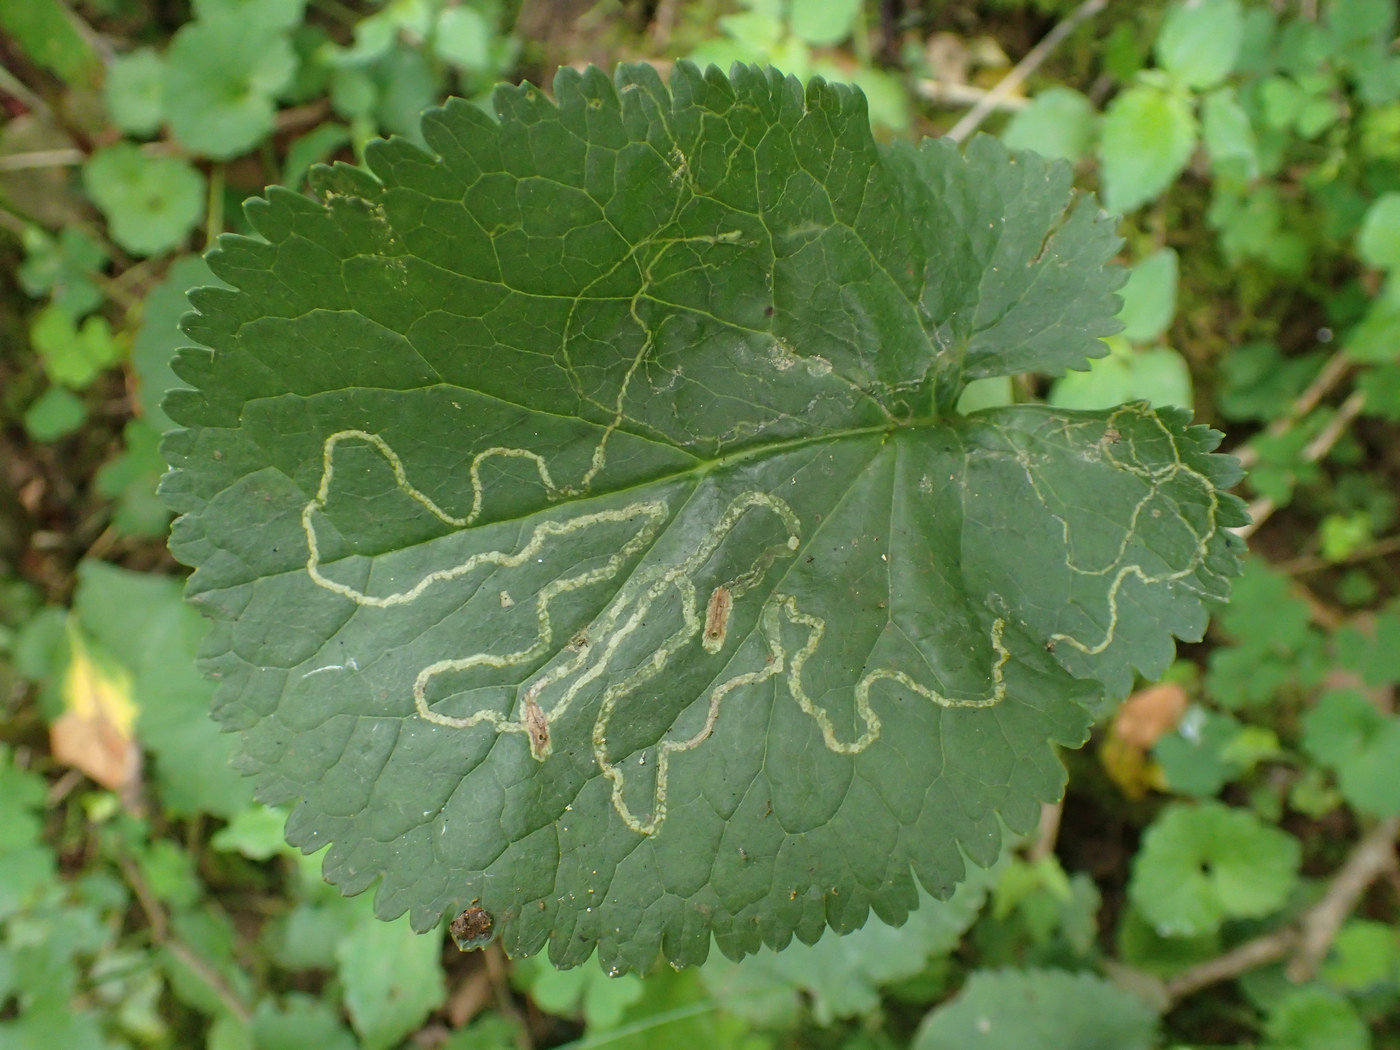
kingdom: Animalia
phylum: Arthropoda
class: Insecta
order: Lepidoptera
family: Gracillariidae
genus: Phyllocnistis
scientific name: Phyllocnistis insignis
